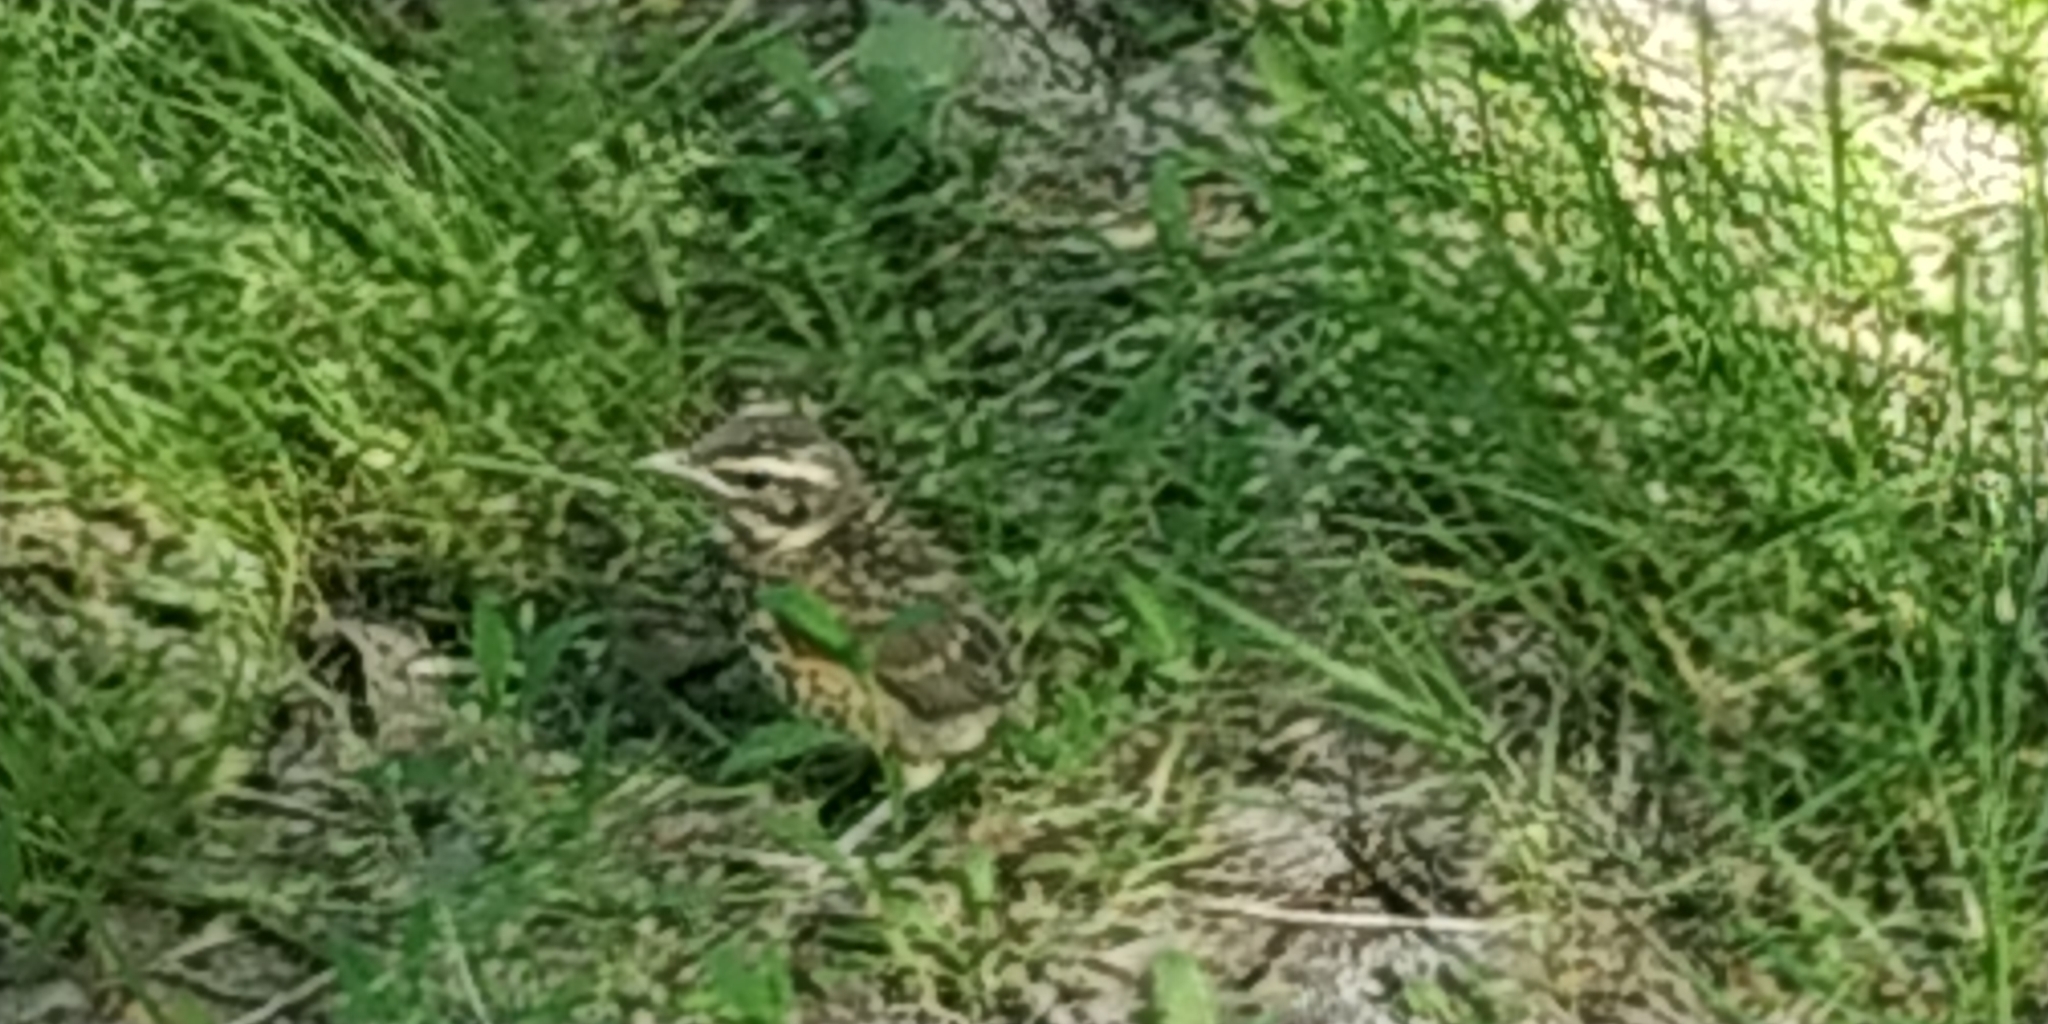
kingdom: Animalia
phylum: Chordata
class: Aves
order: Passeriformes
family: Turdidae
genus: Turdus
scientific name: Turdus iliacus
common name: Redwing
